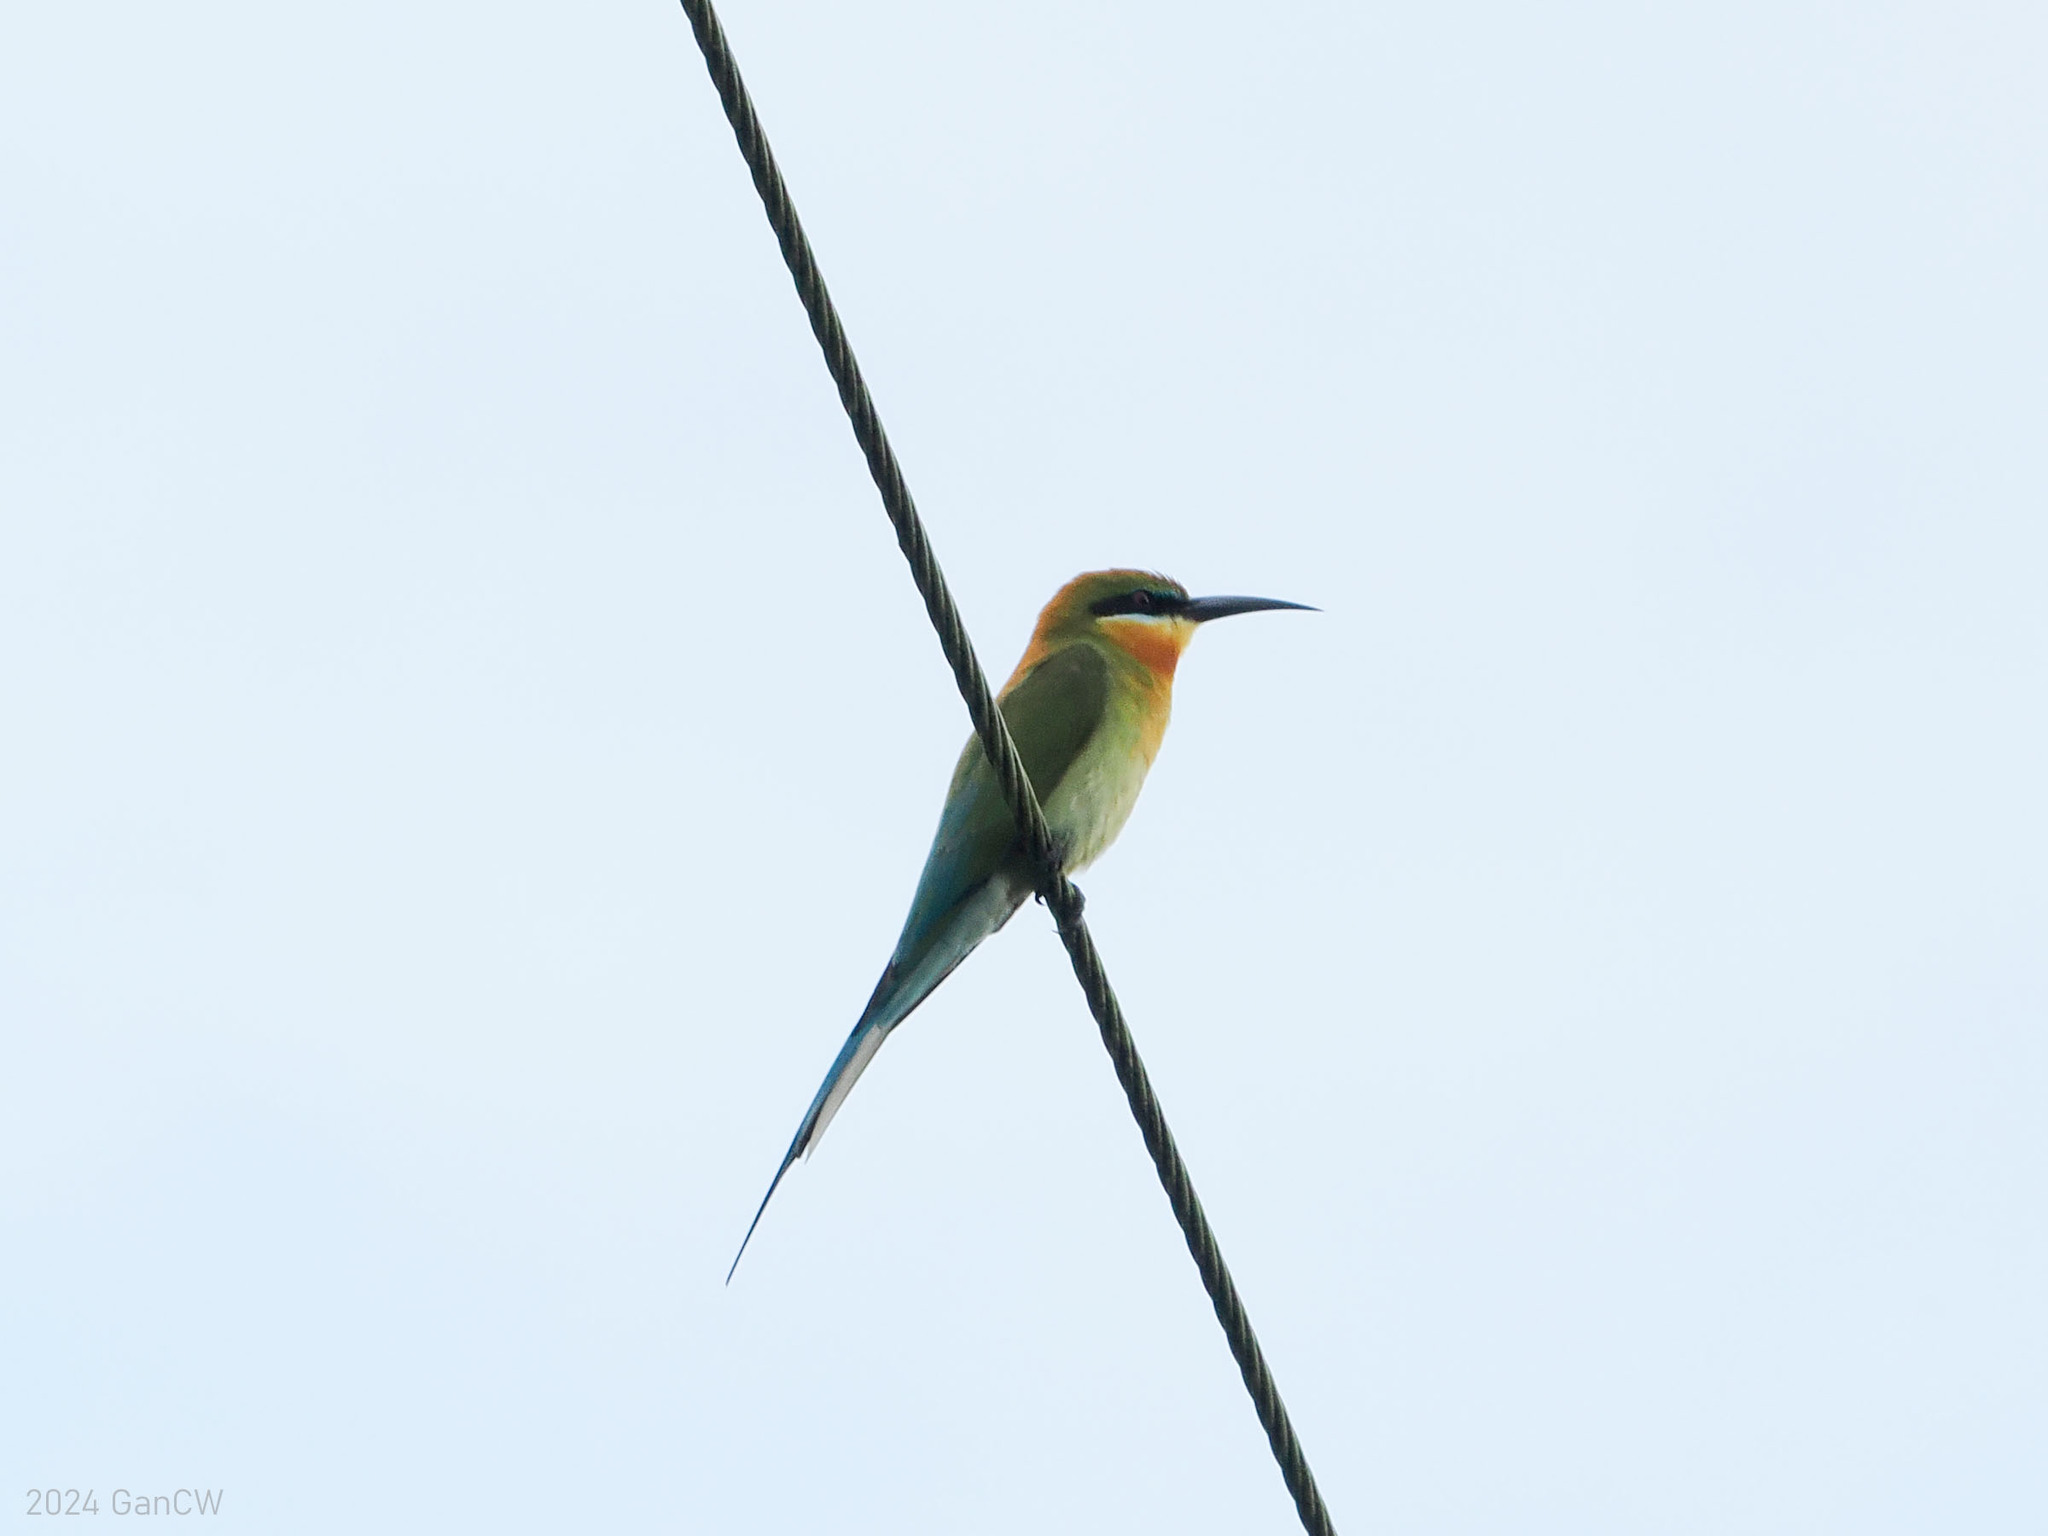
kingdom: Animalia
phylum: Chordata
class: Aves
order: Coraciiformes
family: Meropidae
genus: Merops
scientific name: Merops philippinus
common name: Blue-tailed bee-eater
